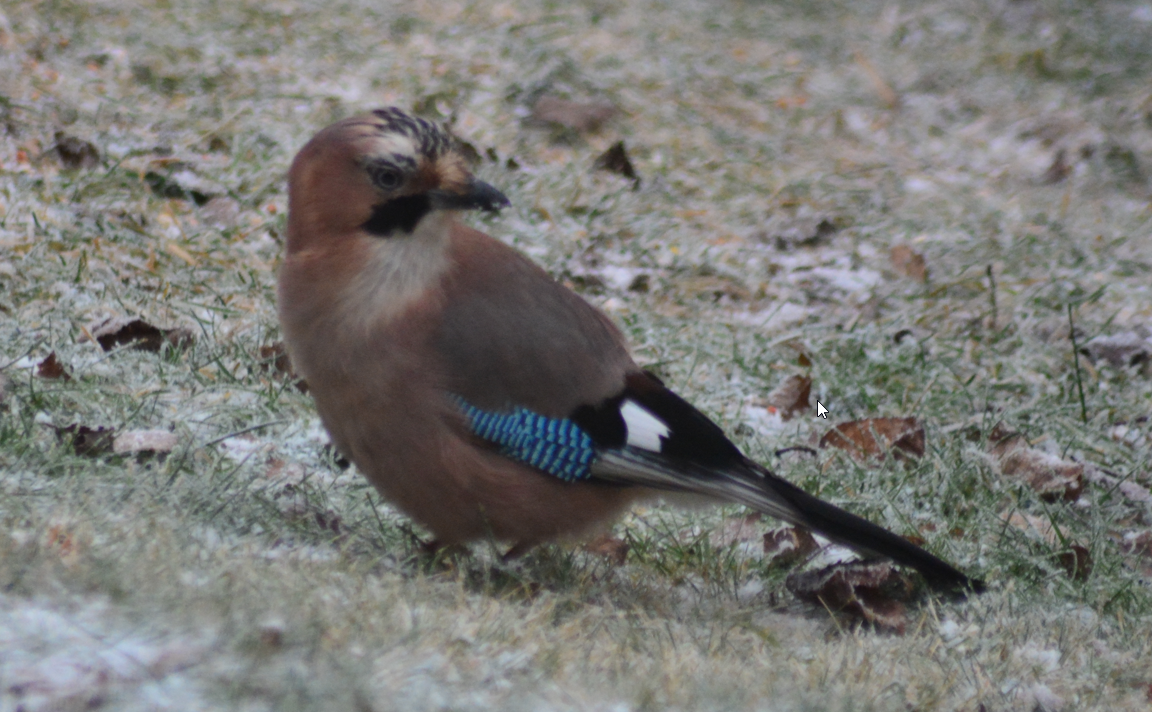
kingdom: Animalia
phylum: Chordata
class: Aves
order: Passeriformes
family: Corvidae
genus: Garrulus
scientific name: Garrulus glandarius
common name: Eurasian jay
